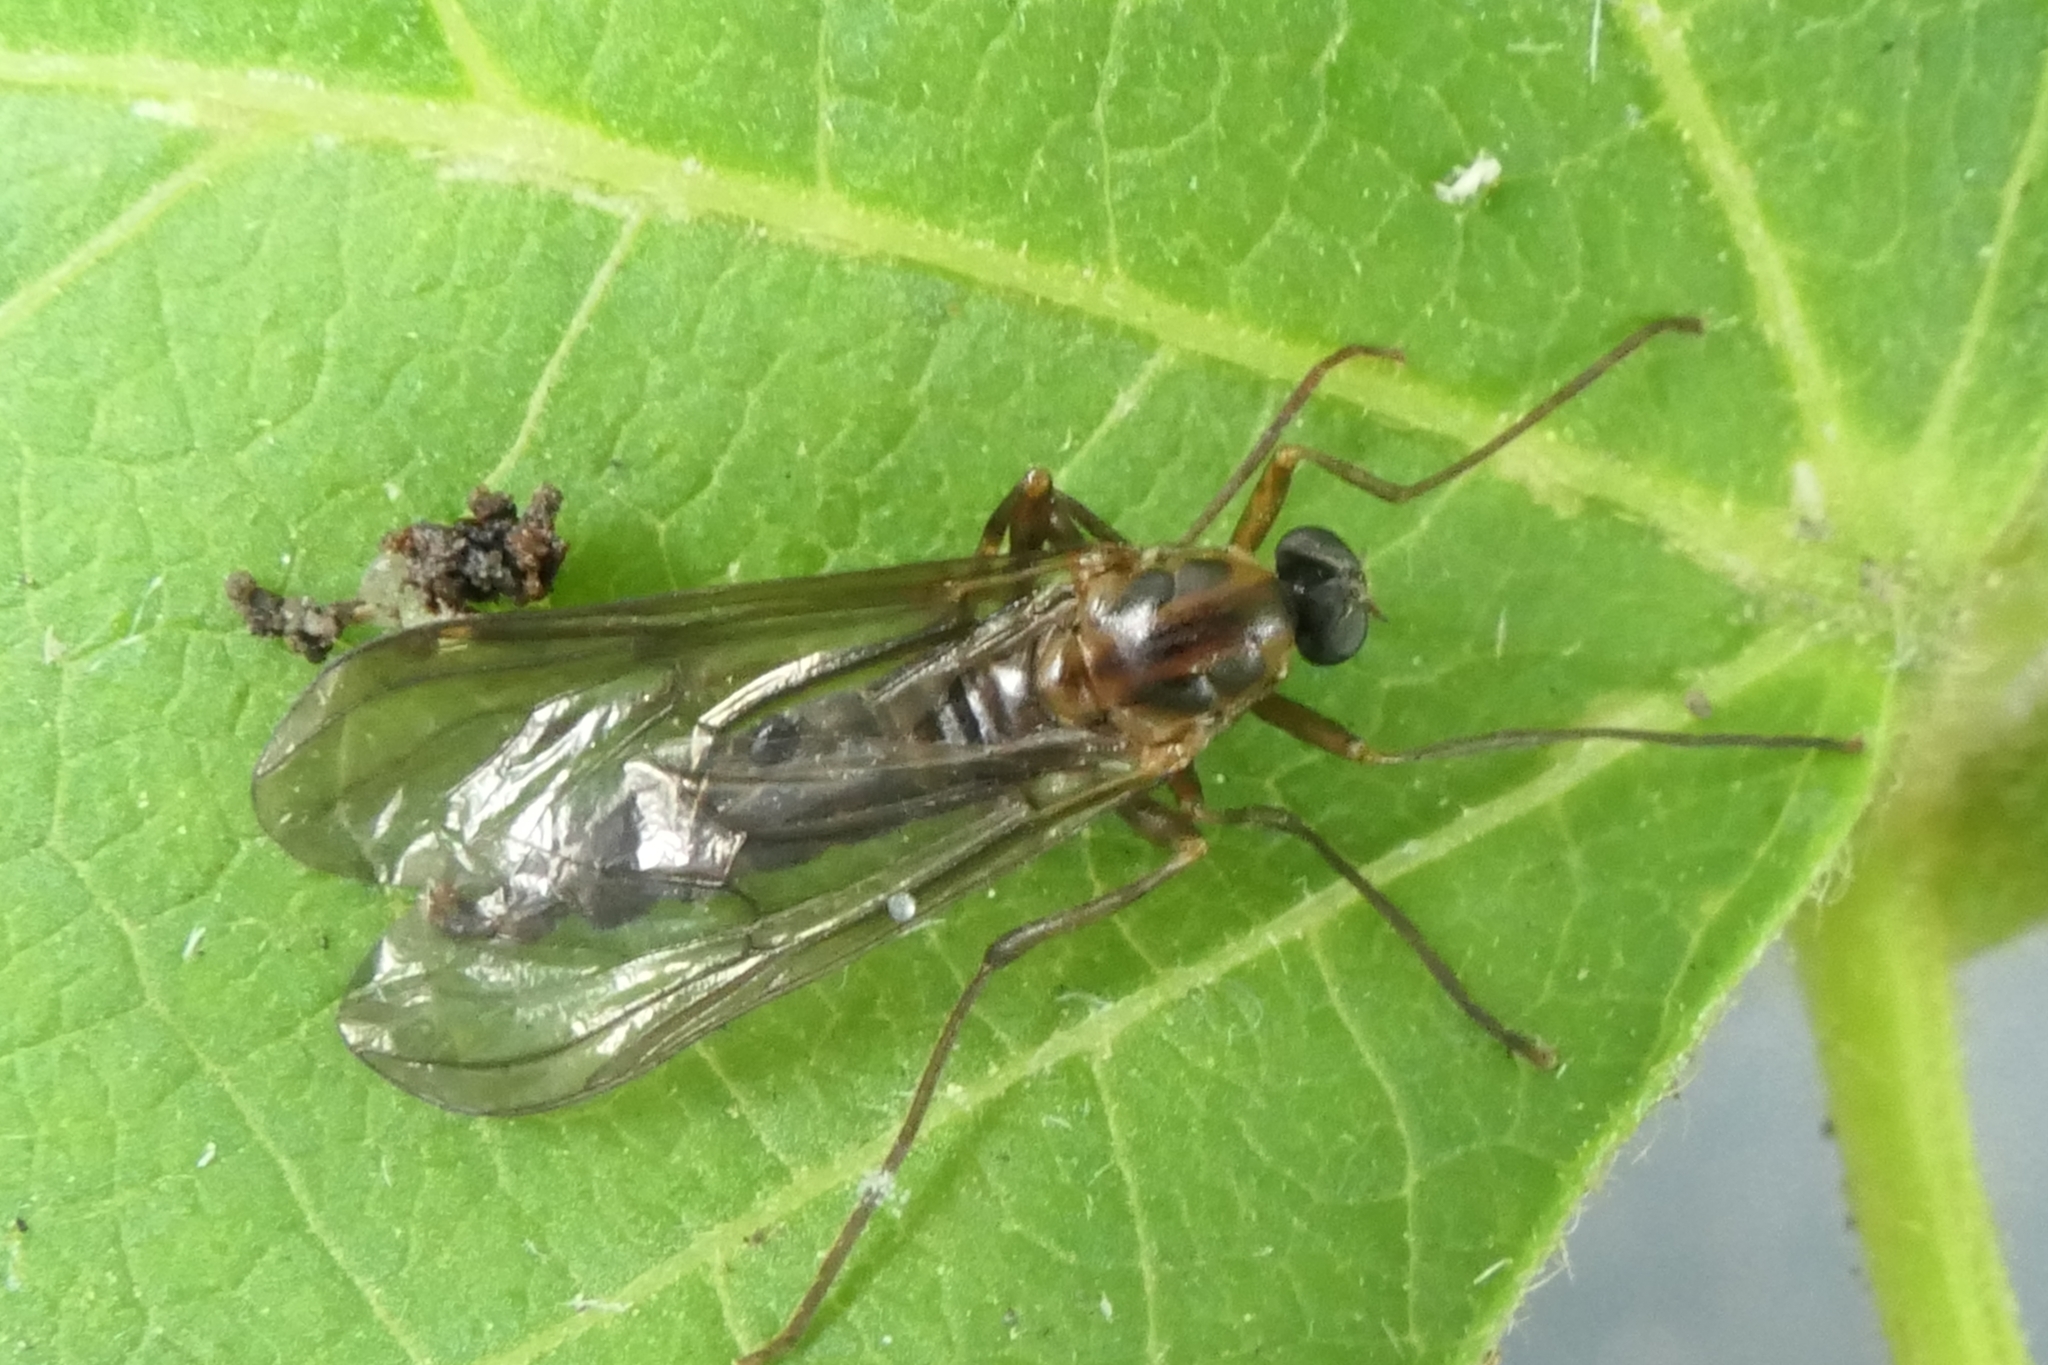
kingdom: Animalia
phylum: Arthropoda
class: Insecta
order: Diptera
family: Stratiomyidae
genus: Boreoides
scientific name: Boreoides tasmaniensis
